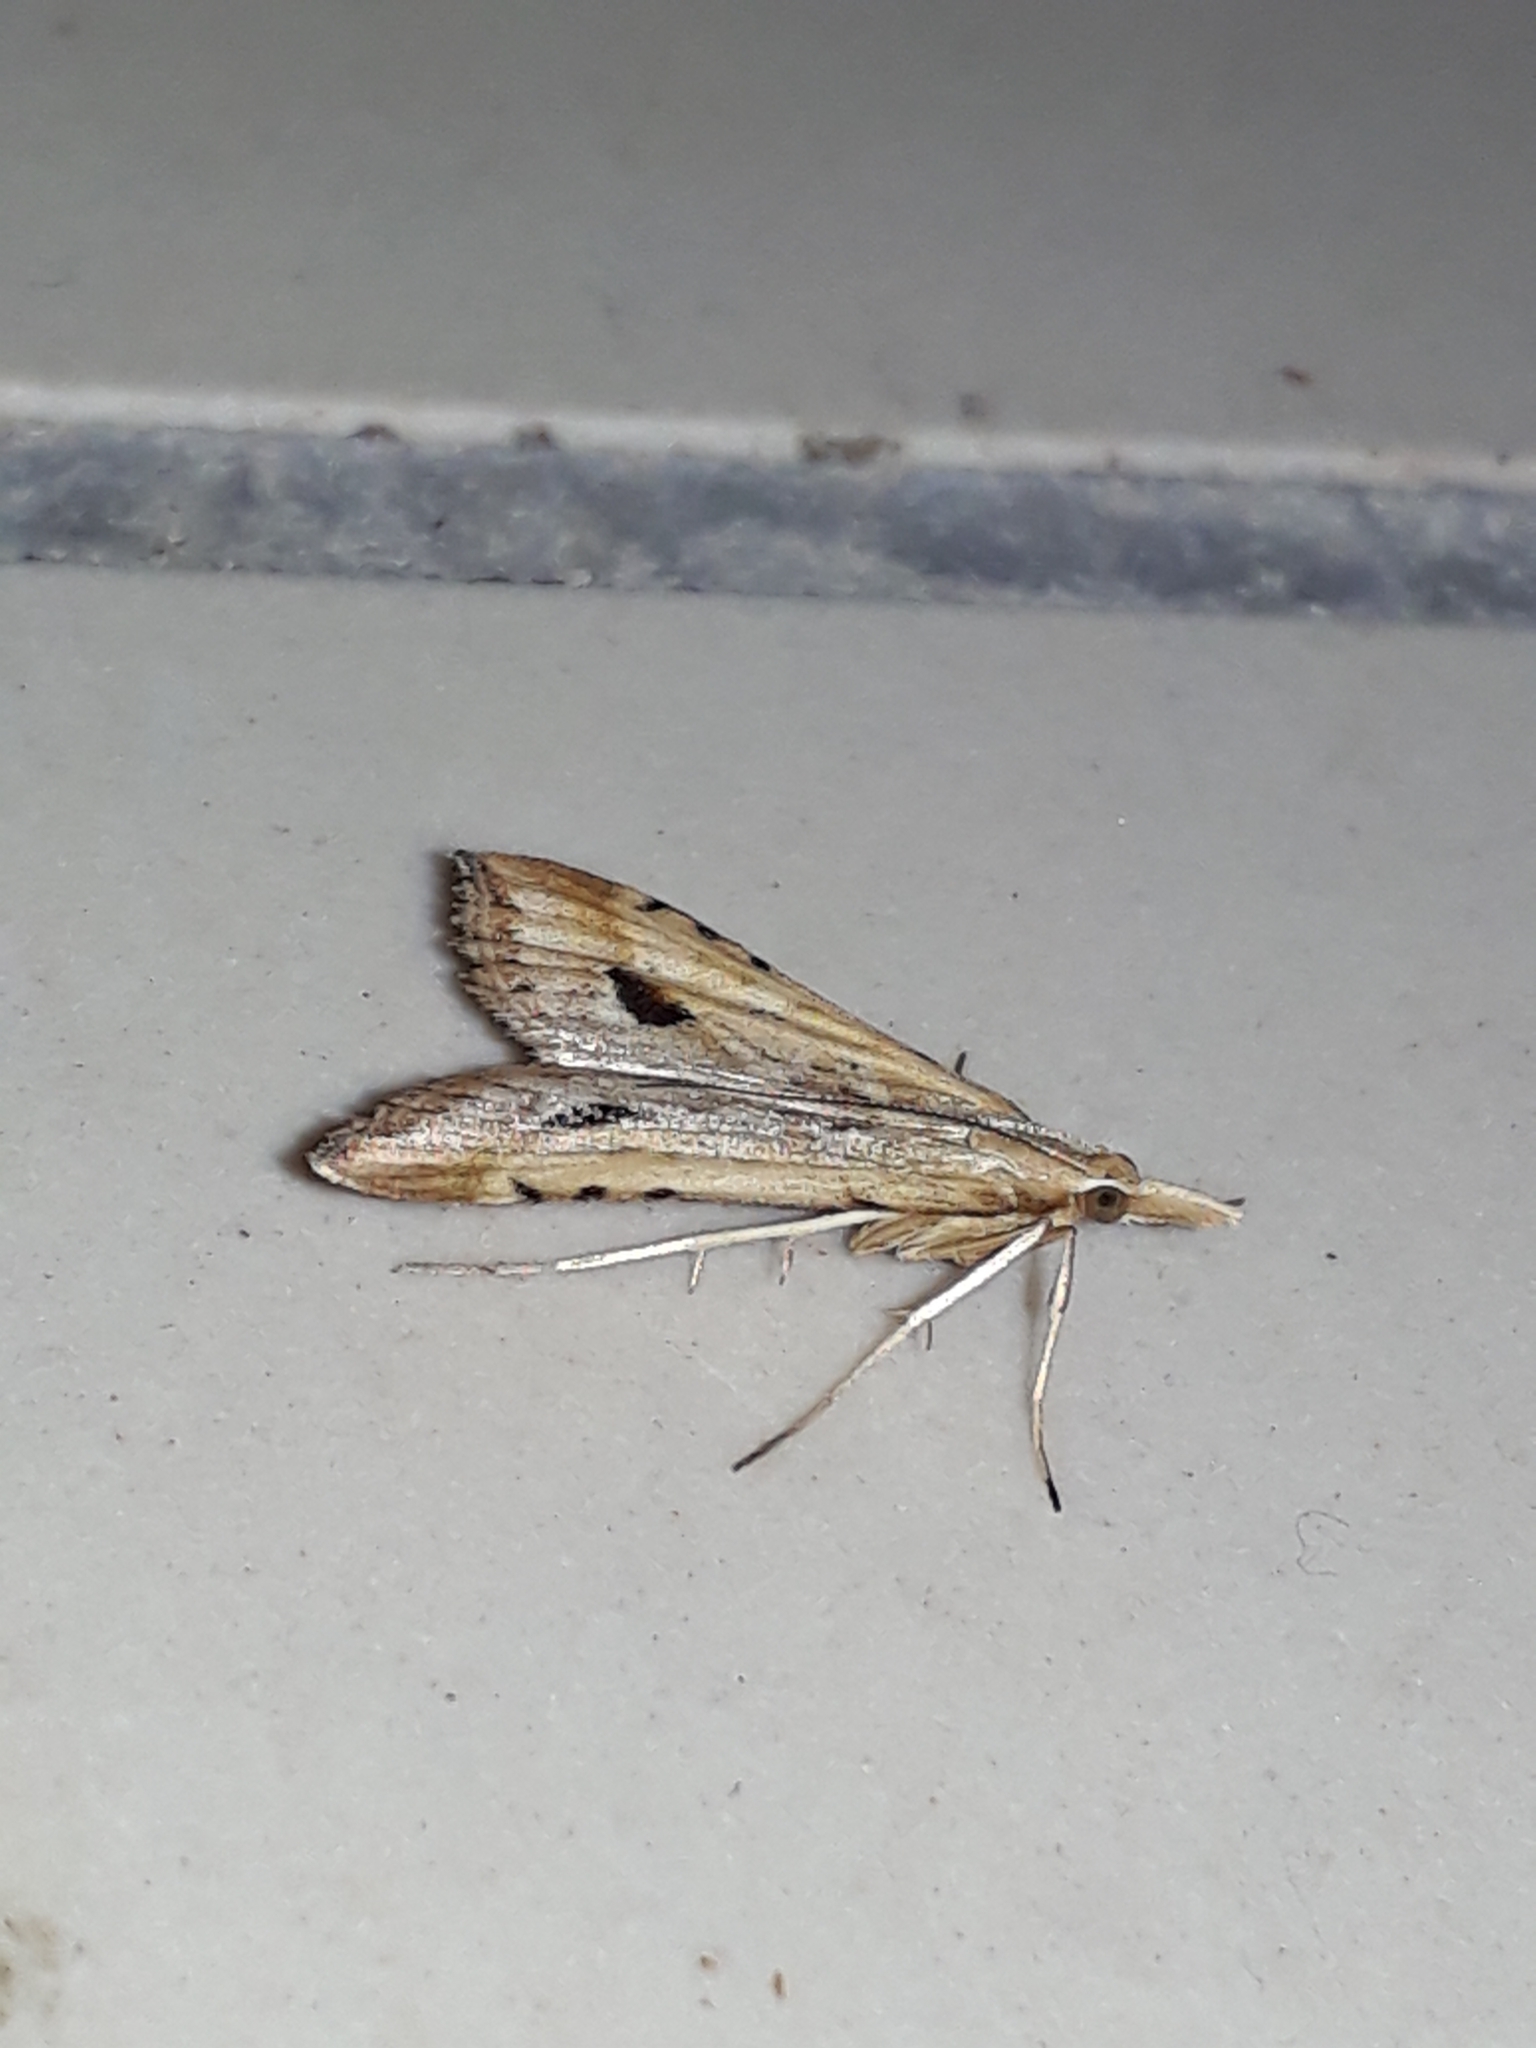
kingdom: Animalia
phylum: Arthropoda
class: Insecta
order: Lepidoptera
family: Crambidae
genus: Diasemia
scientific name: Diasemia monostigma
